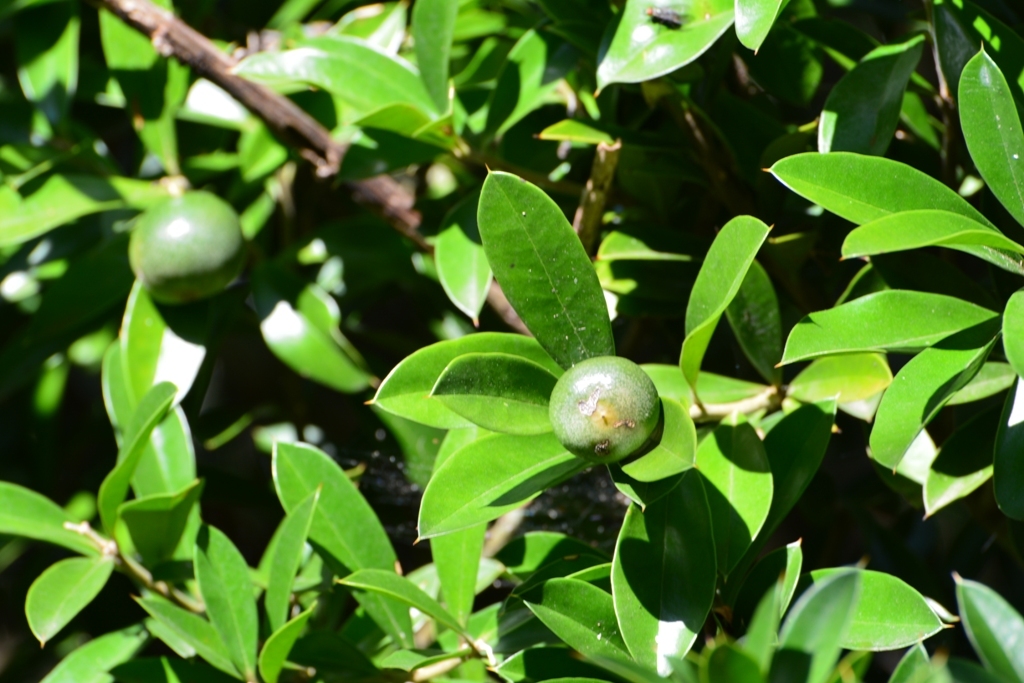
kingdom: Plantae
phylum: Tracheophyta
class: Magnoliopsida
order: Ericales
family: Primulaceae
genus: Bonellia
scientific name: Bonellia macrocarpa
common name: Primrose
